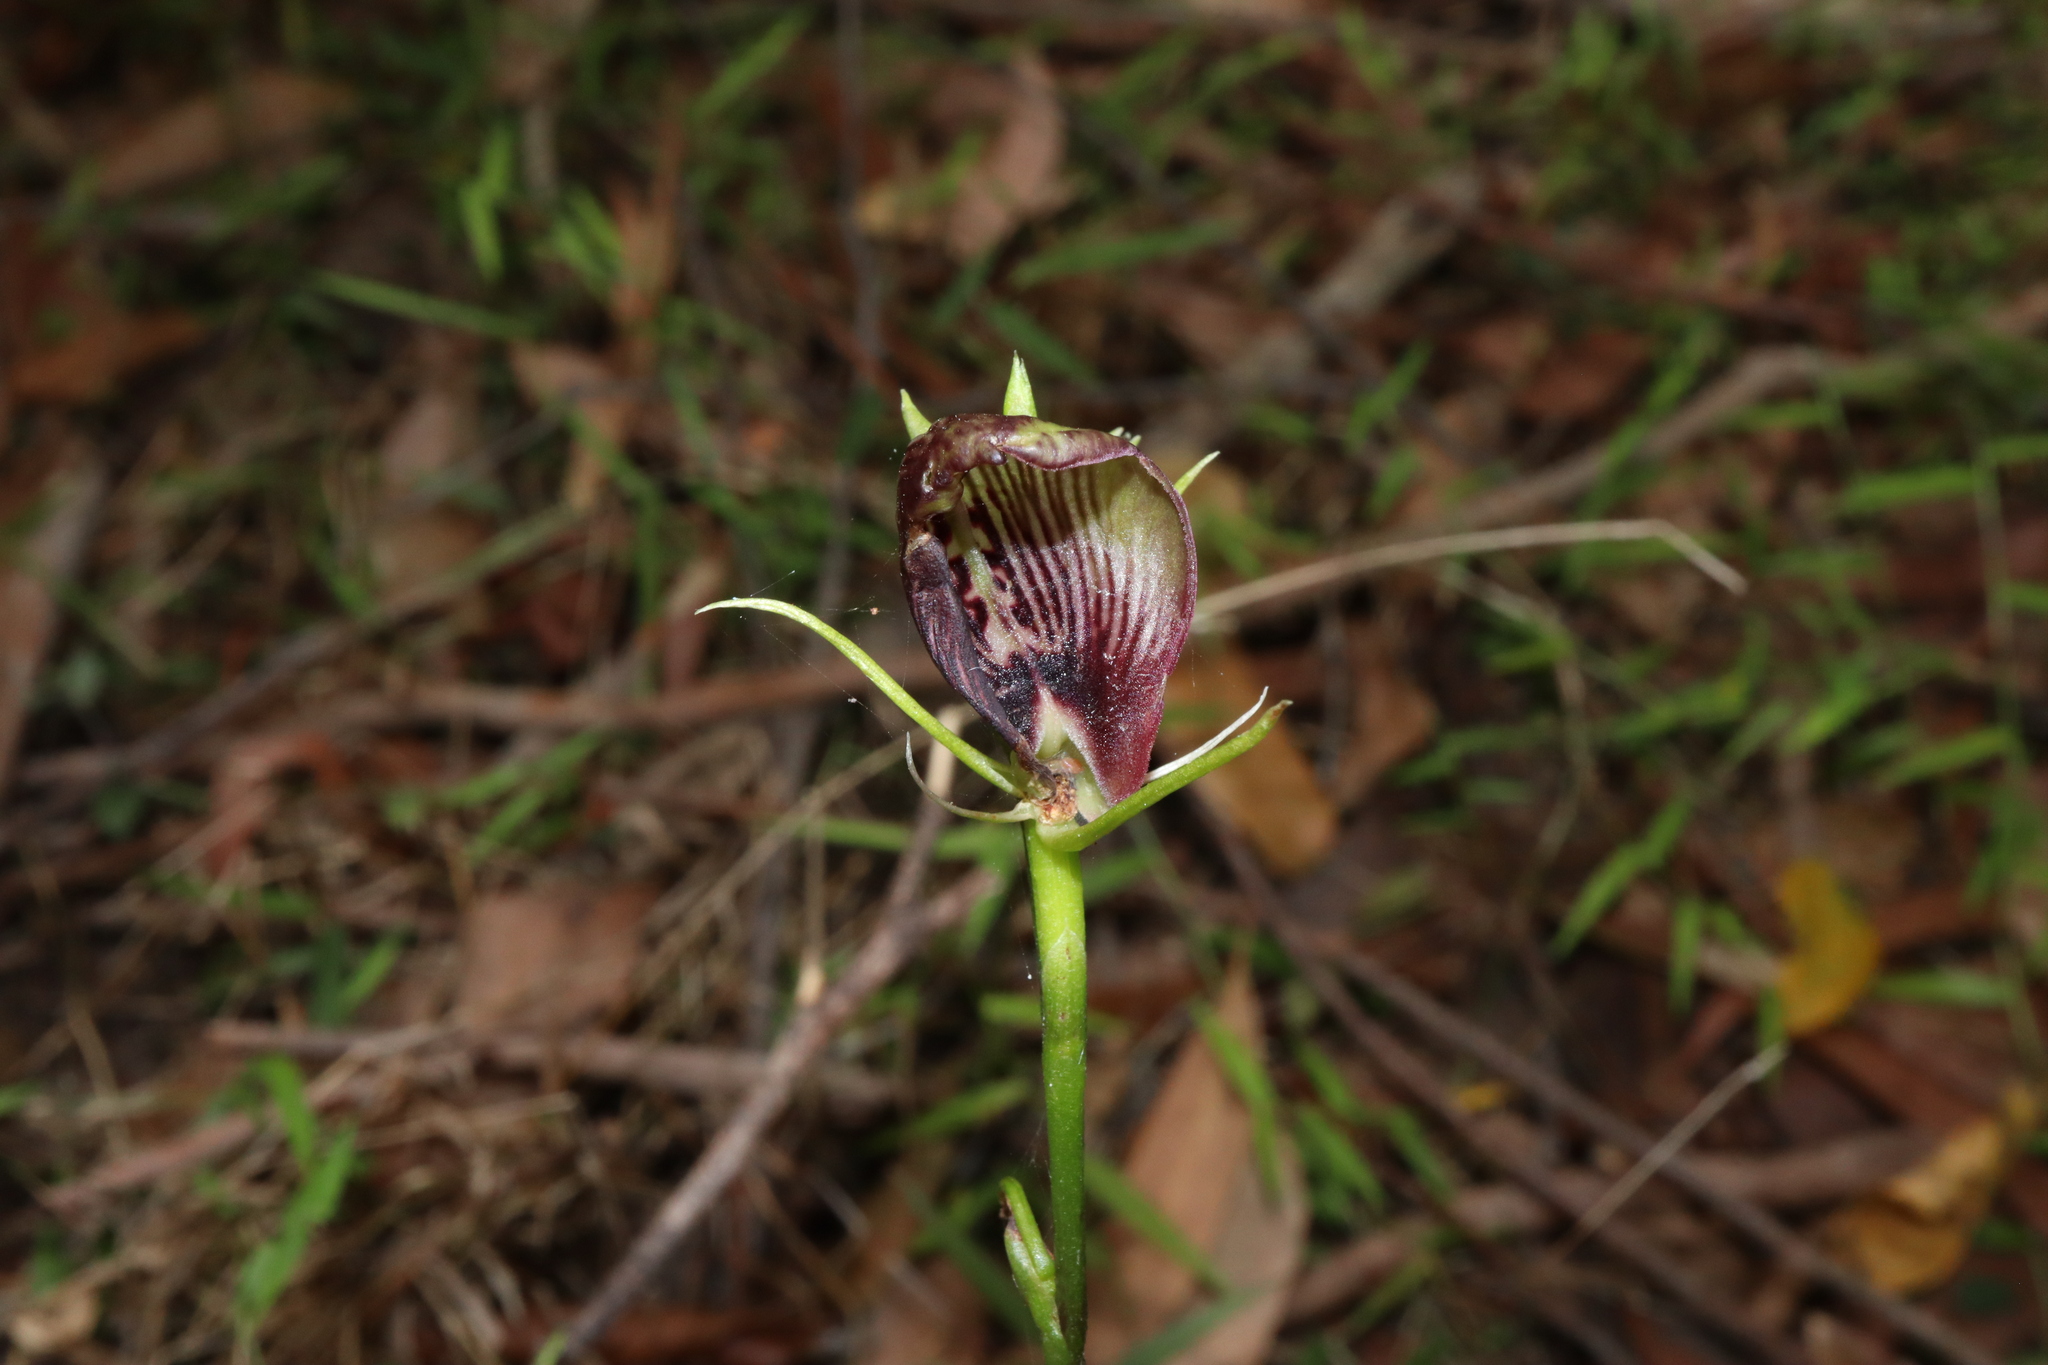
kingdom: Plantae
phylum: Tracheophyta
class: Liliopsida
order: Asparagales
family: Orchidaceae
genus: Cryptostylis
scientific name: Cryptostylis erecta
